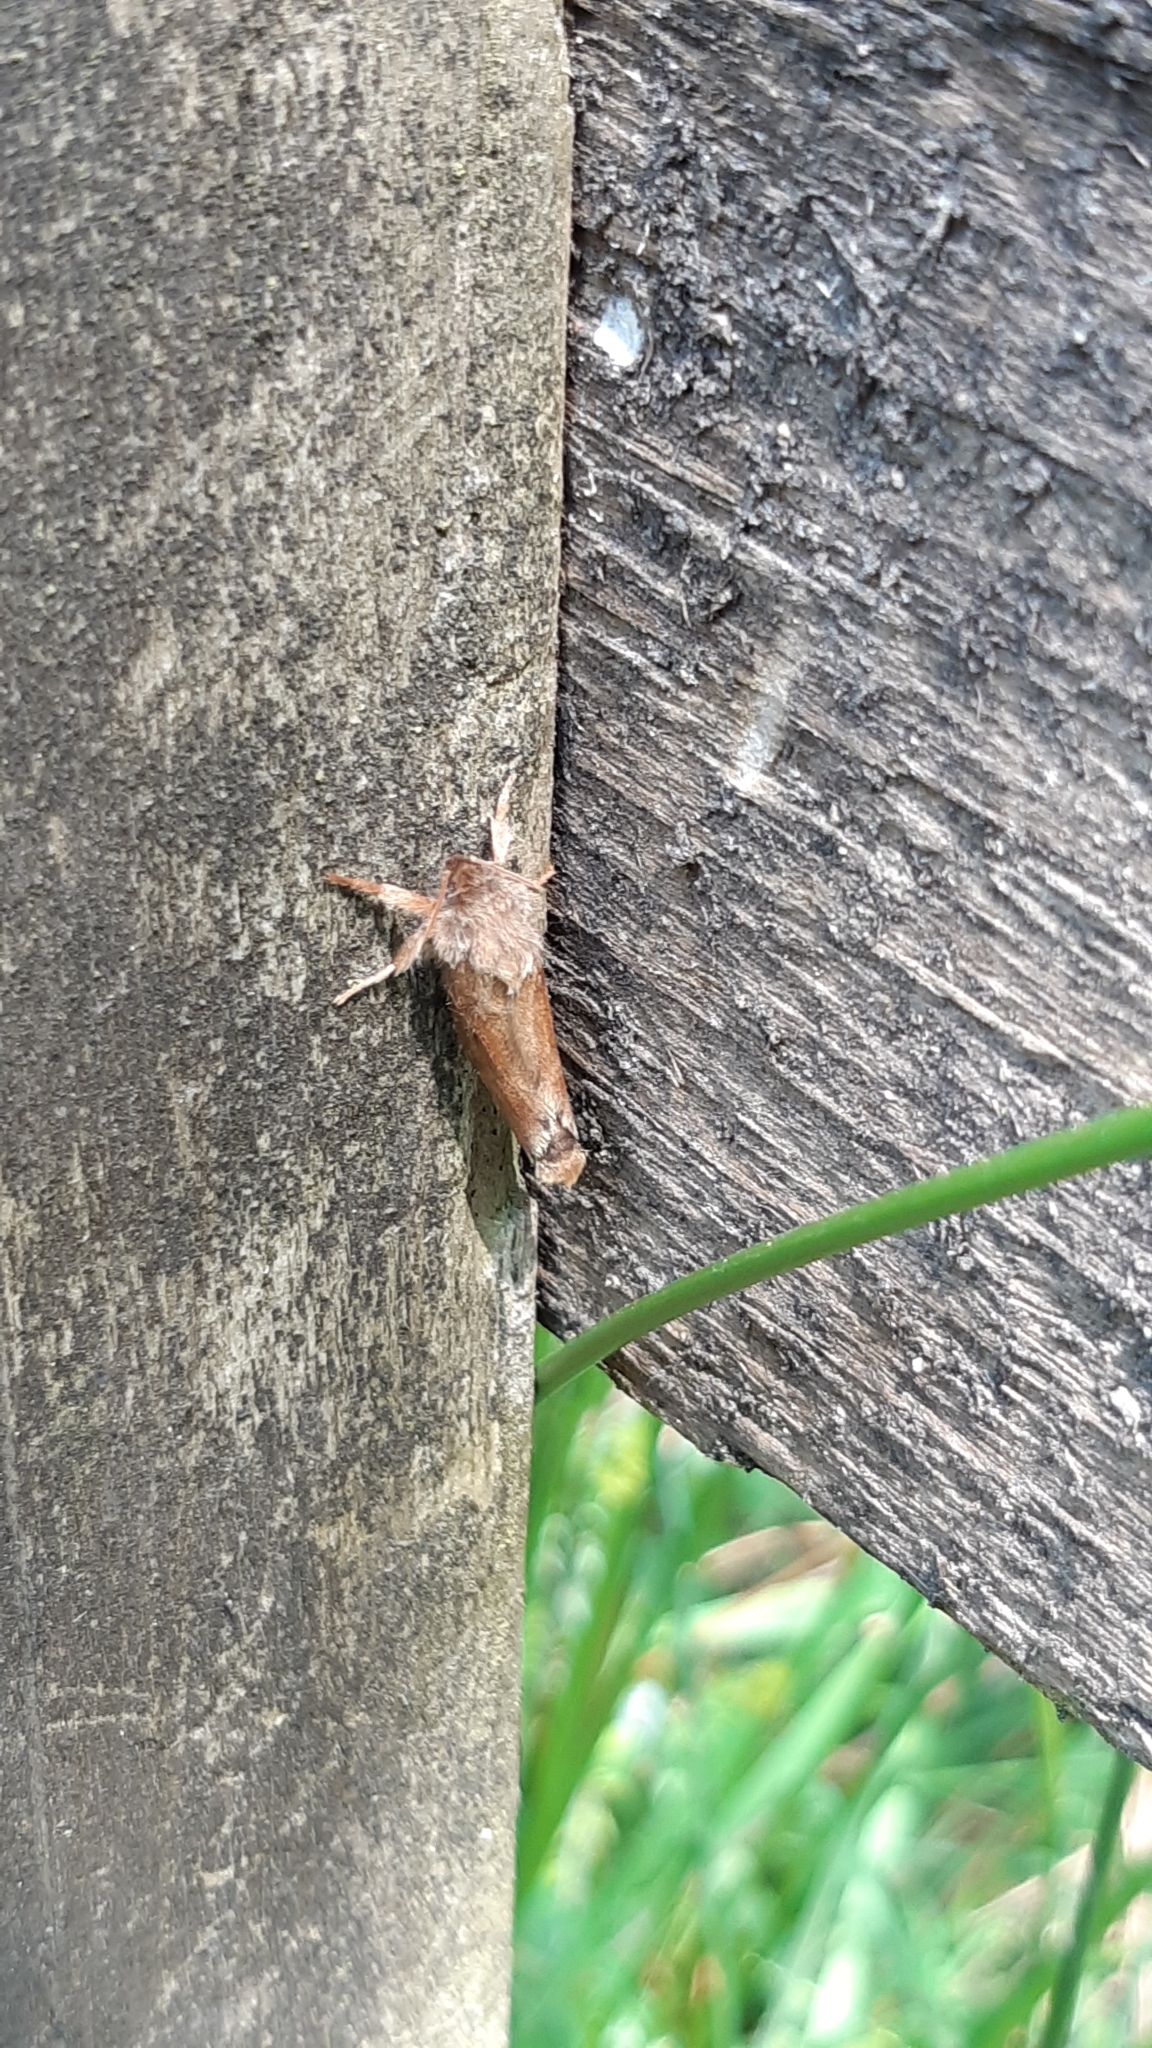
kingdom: Animalia
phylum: Arthropoda
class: Insecta
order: Lepidoptera
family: Hepialidae
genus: Korscheltellus
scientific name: Korscheltellus fusconebulosus
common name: Map-winged swift
